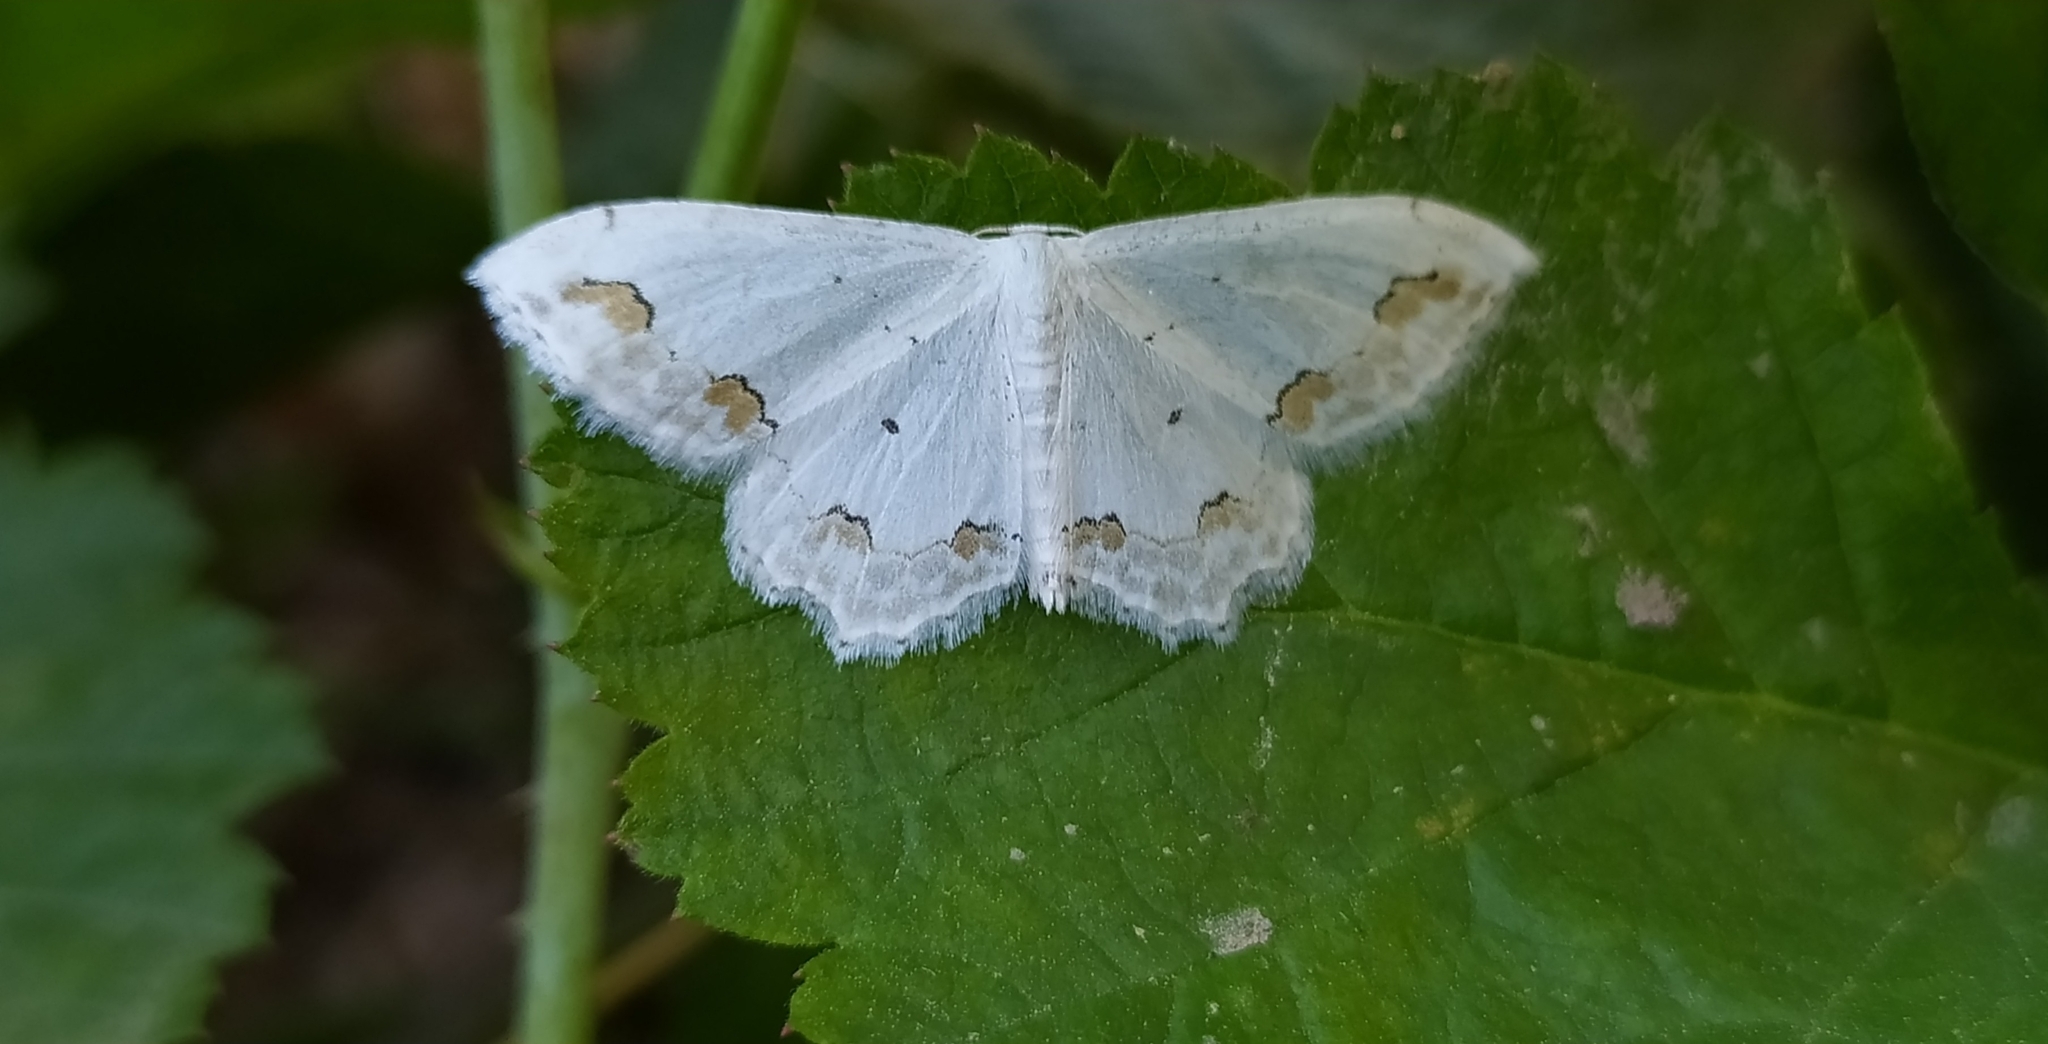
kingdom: Animalia
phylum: Arthropoda
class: Insecta
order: Lepidoptera
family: Geometridae
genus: Scopula
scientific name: Scopula ornata
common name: Lace border
